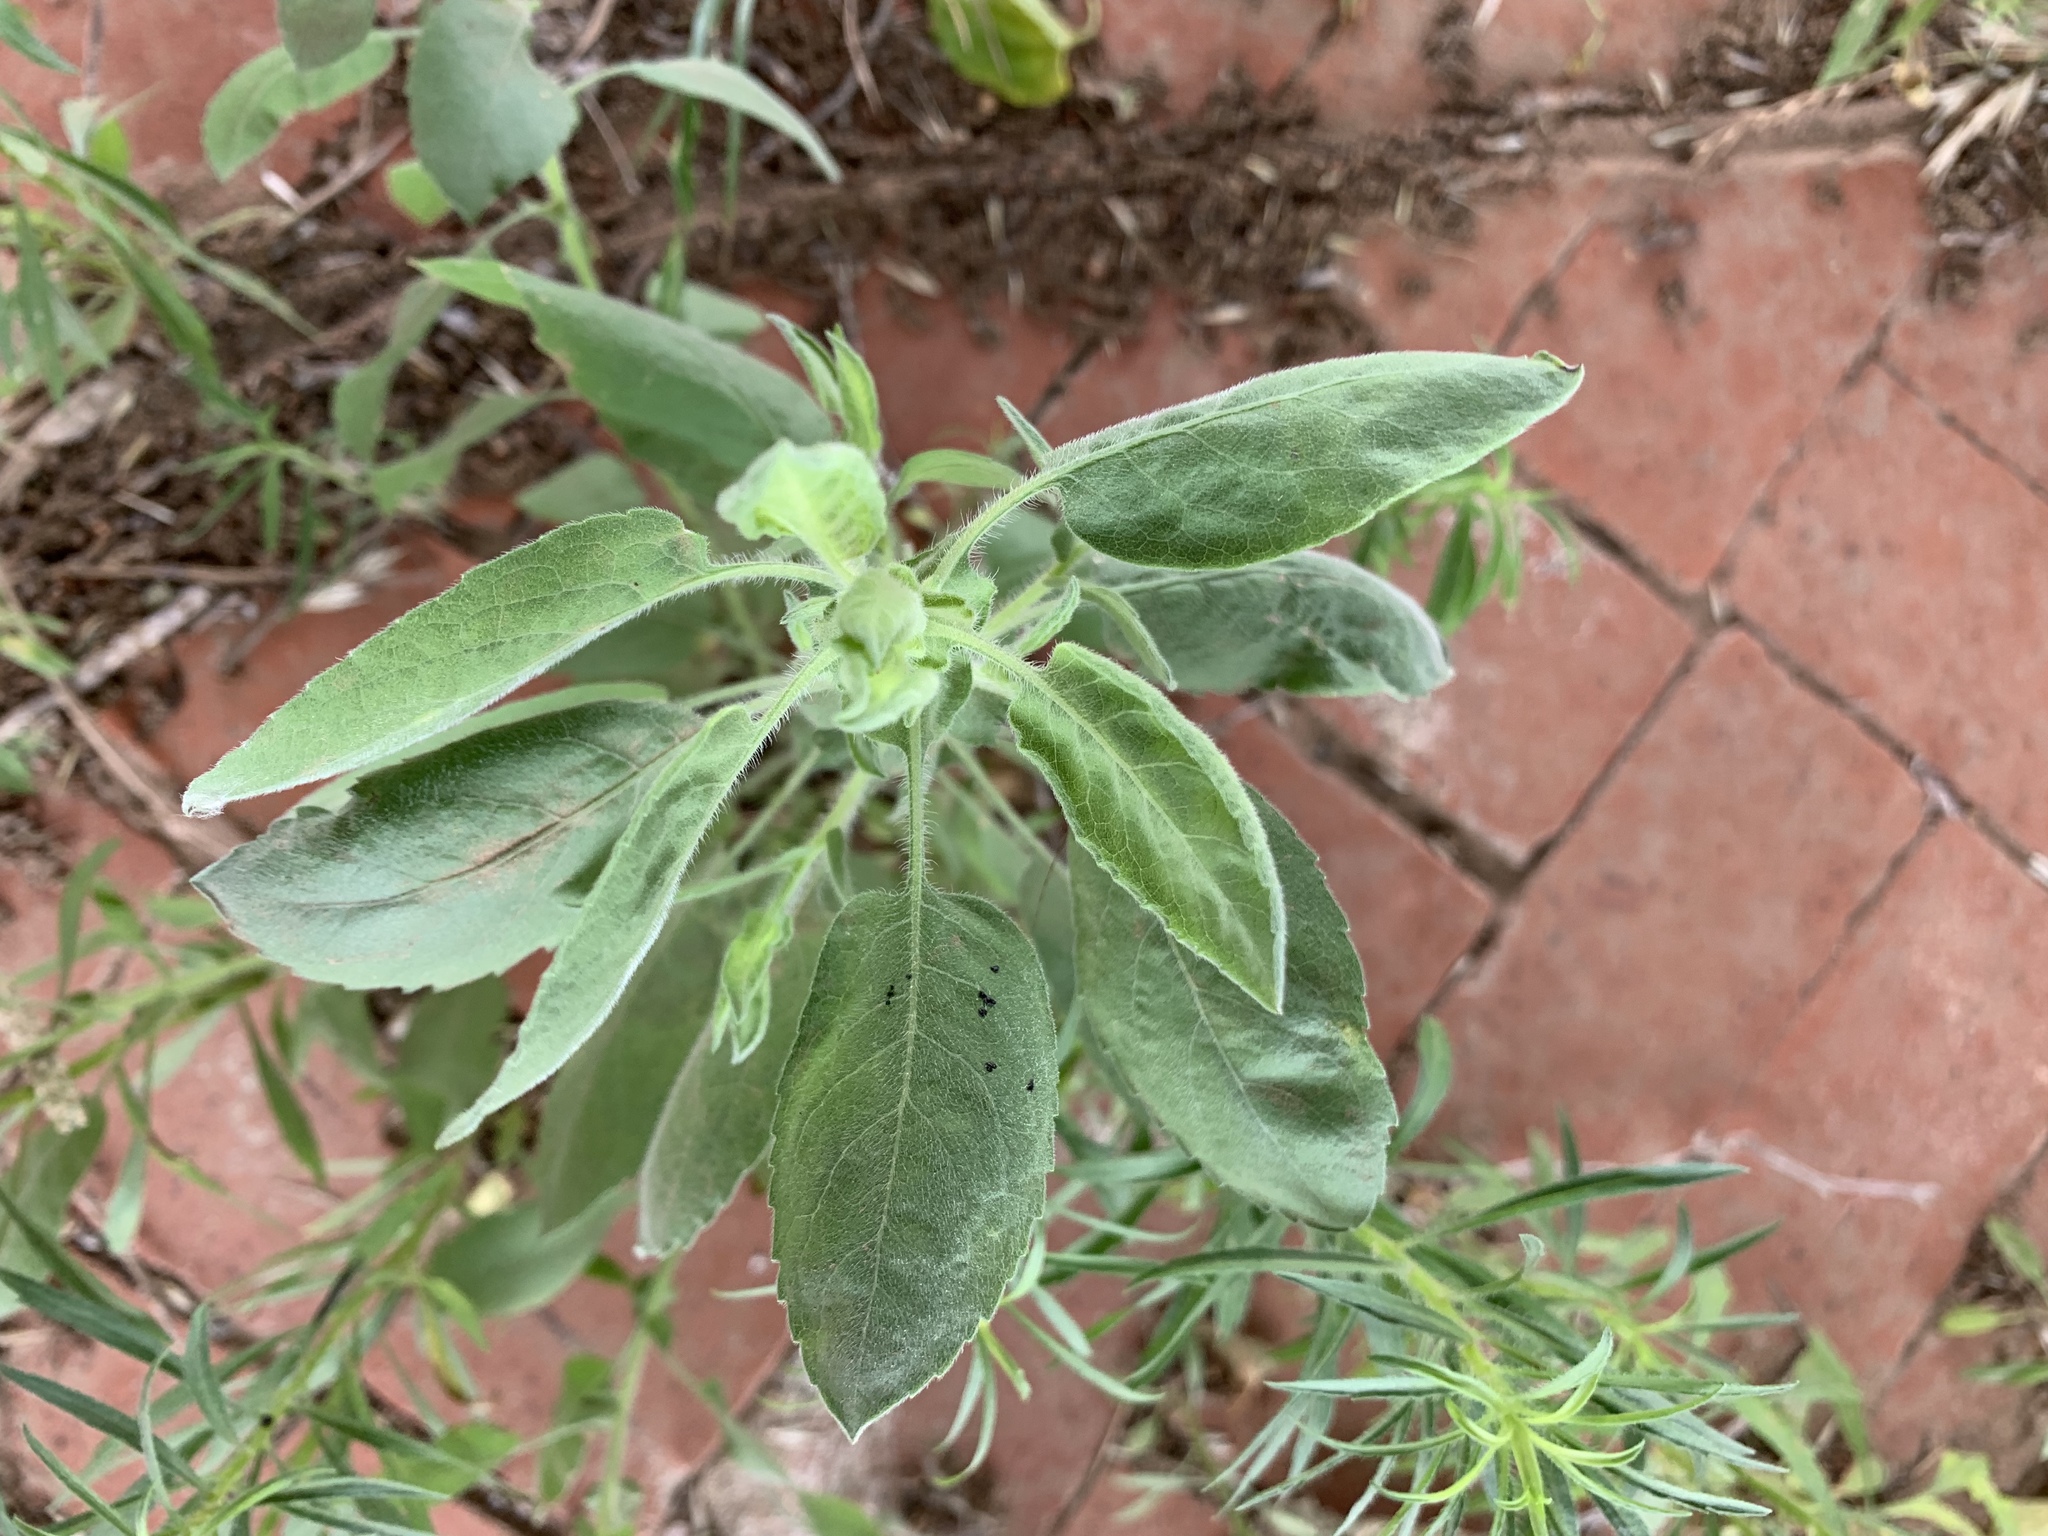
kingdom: Plantae
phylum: Tracheophyta
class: Magnoliopsida
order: Asterales
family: Asteraceae
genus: Heterotheca
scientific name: Heterotheca subaxillaris
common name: Camphorweed
